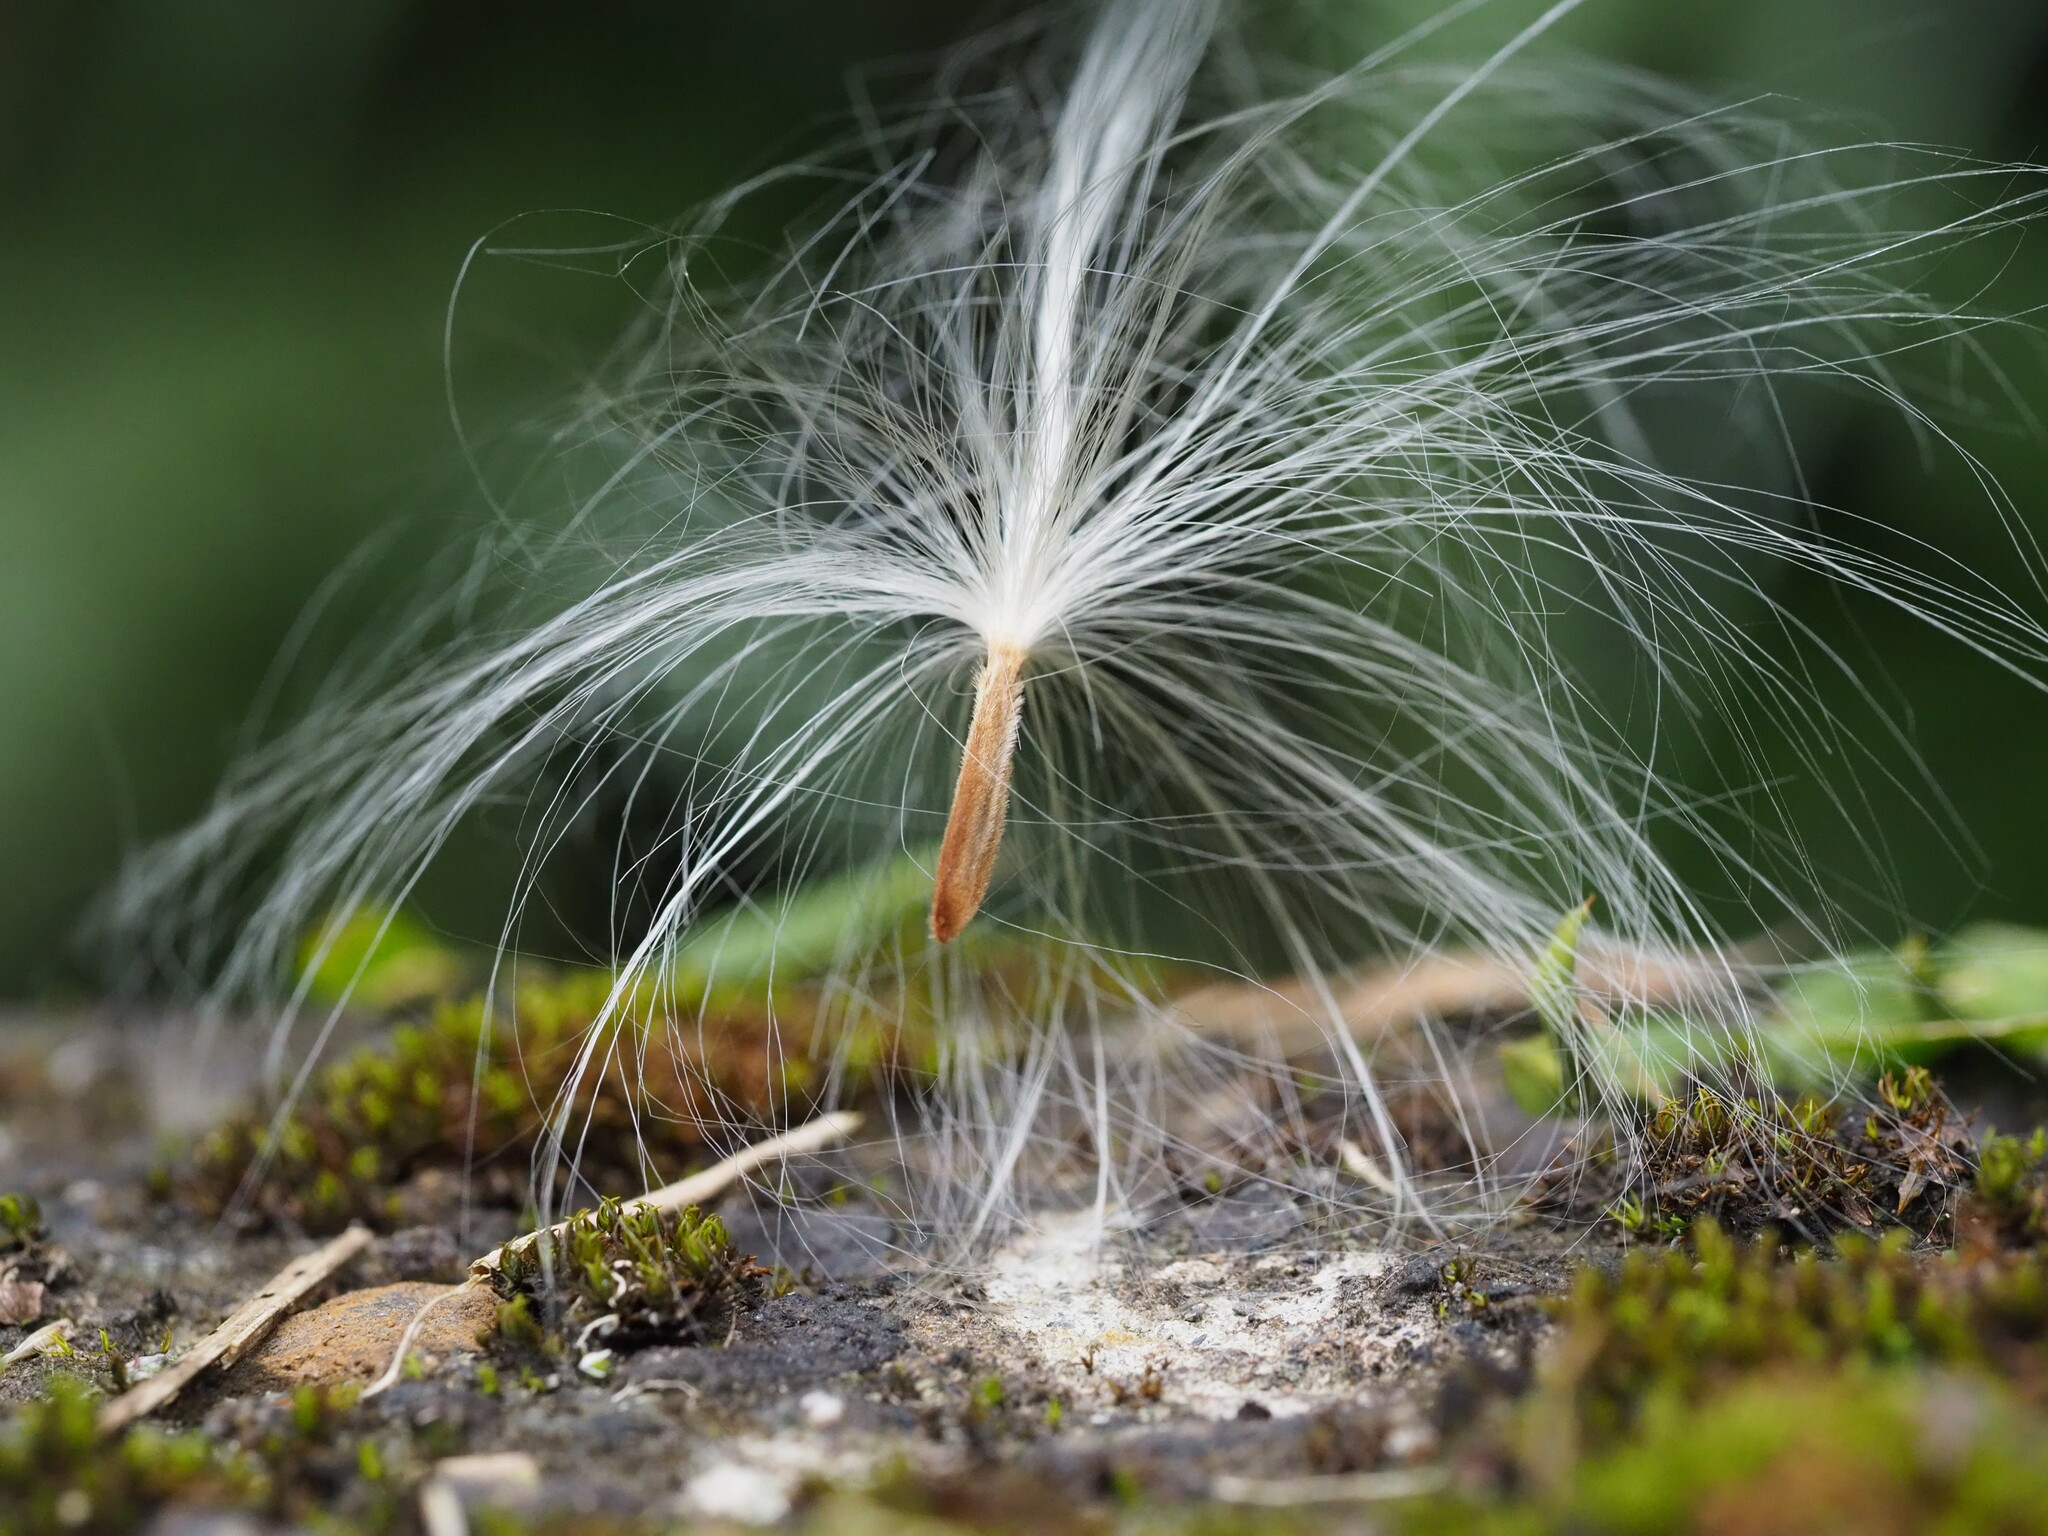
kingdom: Plantae
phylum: Tracheophyta
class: Magnoliopsida
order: Gentianales
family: Apocynaceae
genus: Urceola
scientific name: Urceola rosea
